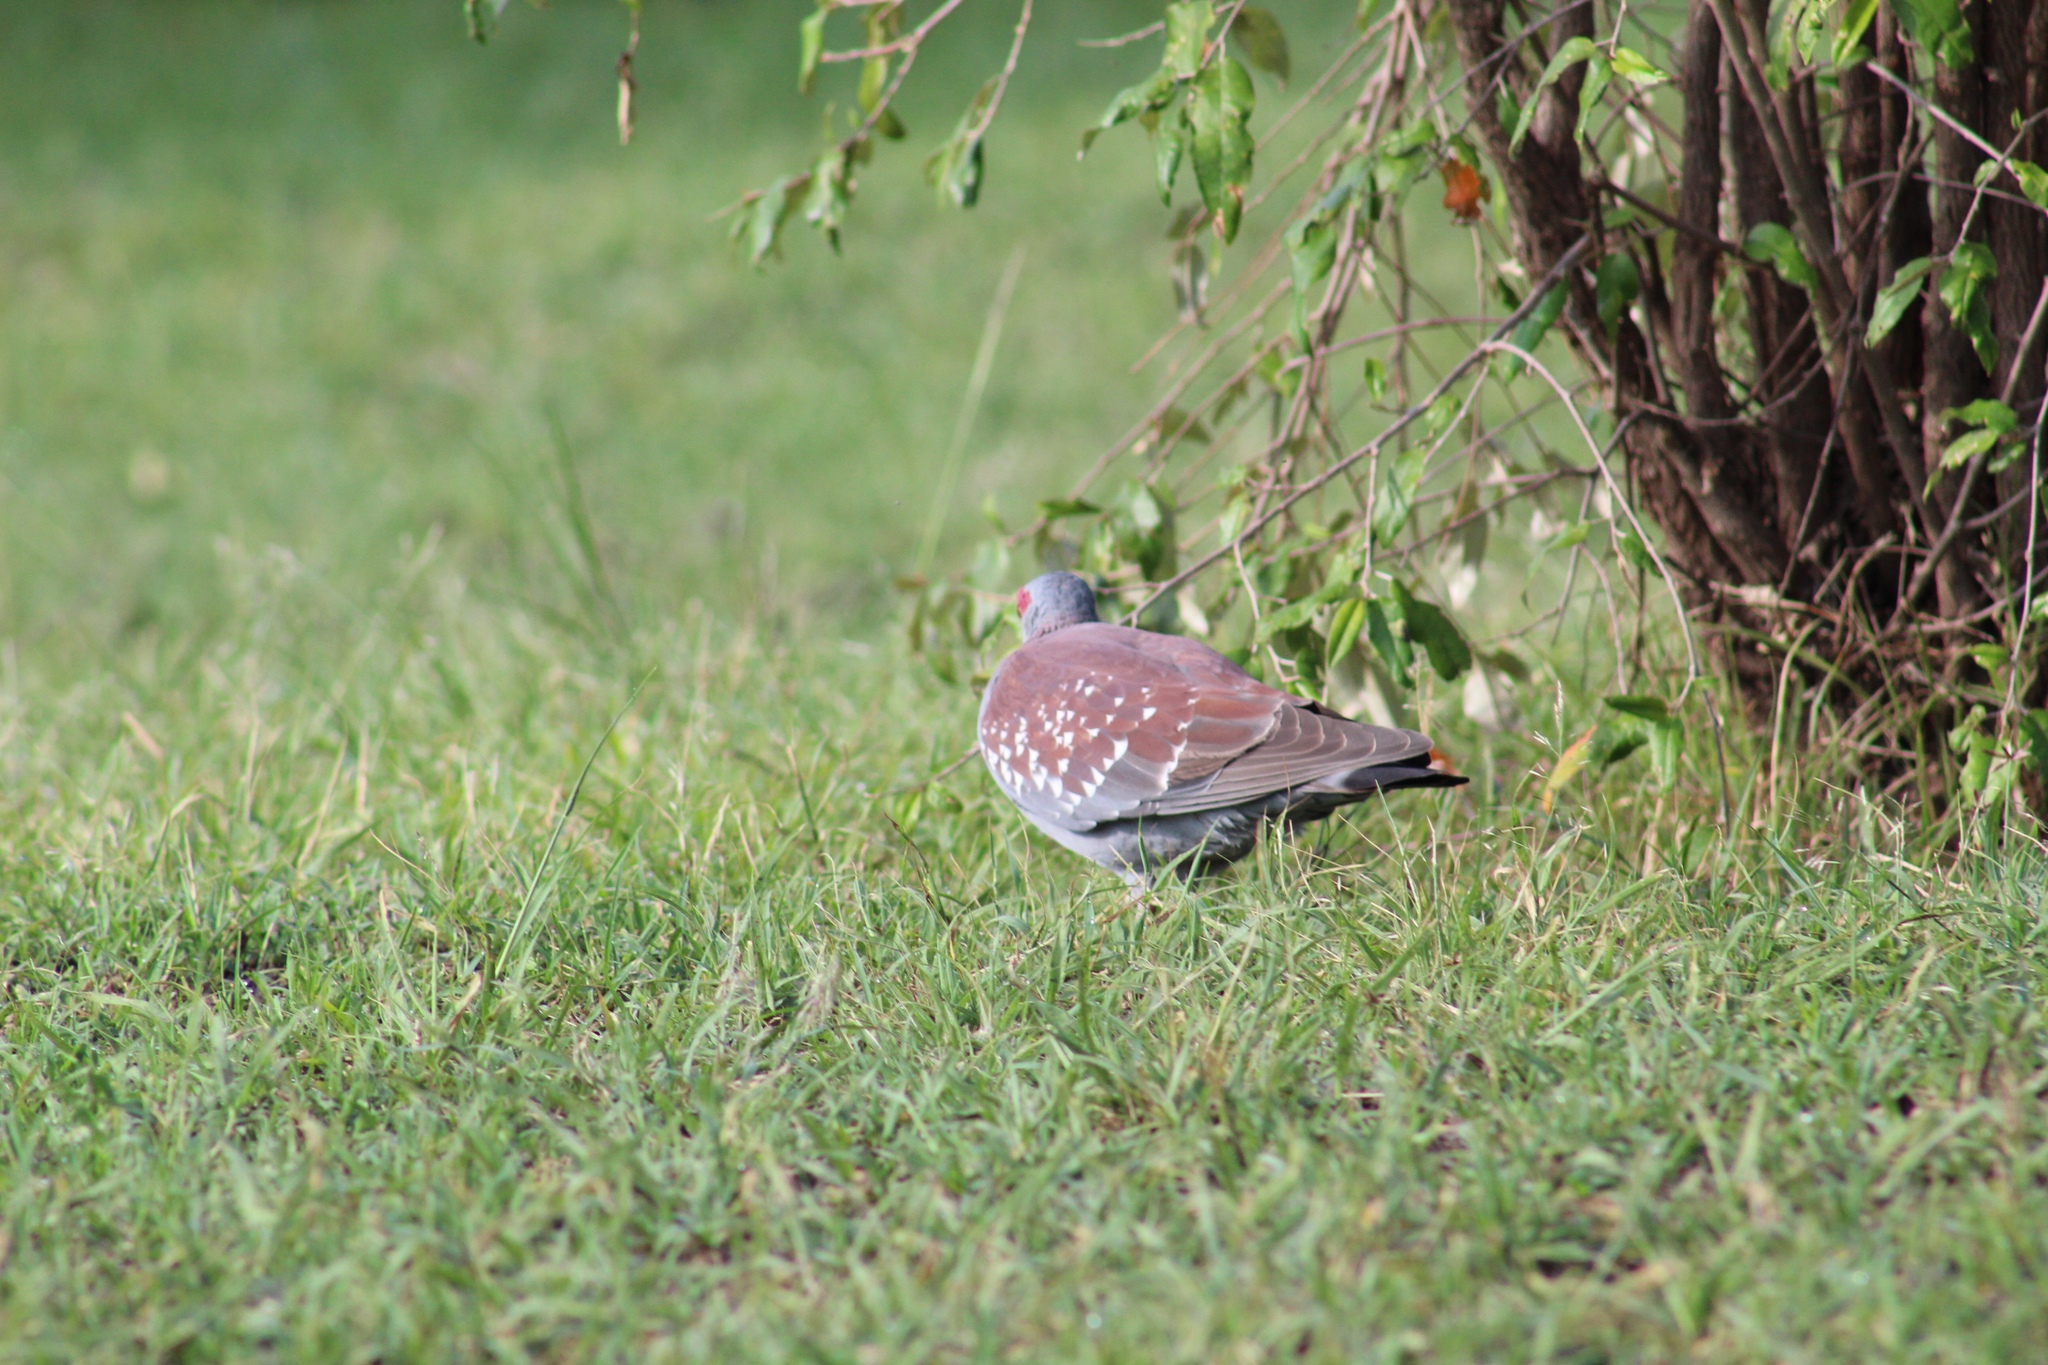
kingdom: Animalia
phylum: Chordata
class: Aves
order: Columbiformes
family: Columbidae
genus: Columba
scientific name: Columba guinea
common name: Speckled pigeon
